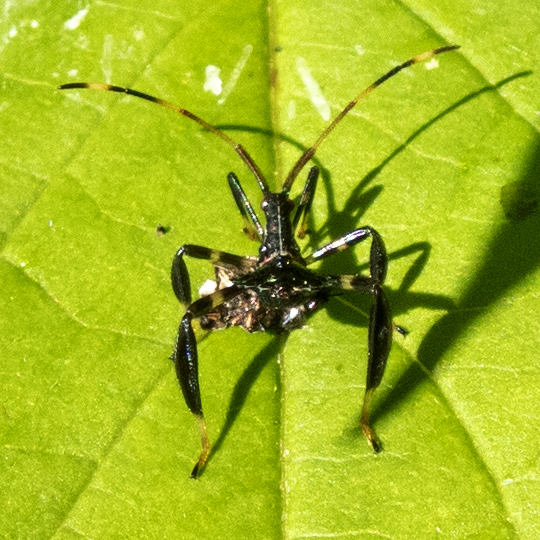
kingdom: Animalia
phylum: Arthropoda
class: Insecta
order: Hemiptera
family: Coreidae
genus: Acanthocephala
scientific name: Acanthocephala terminalis
